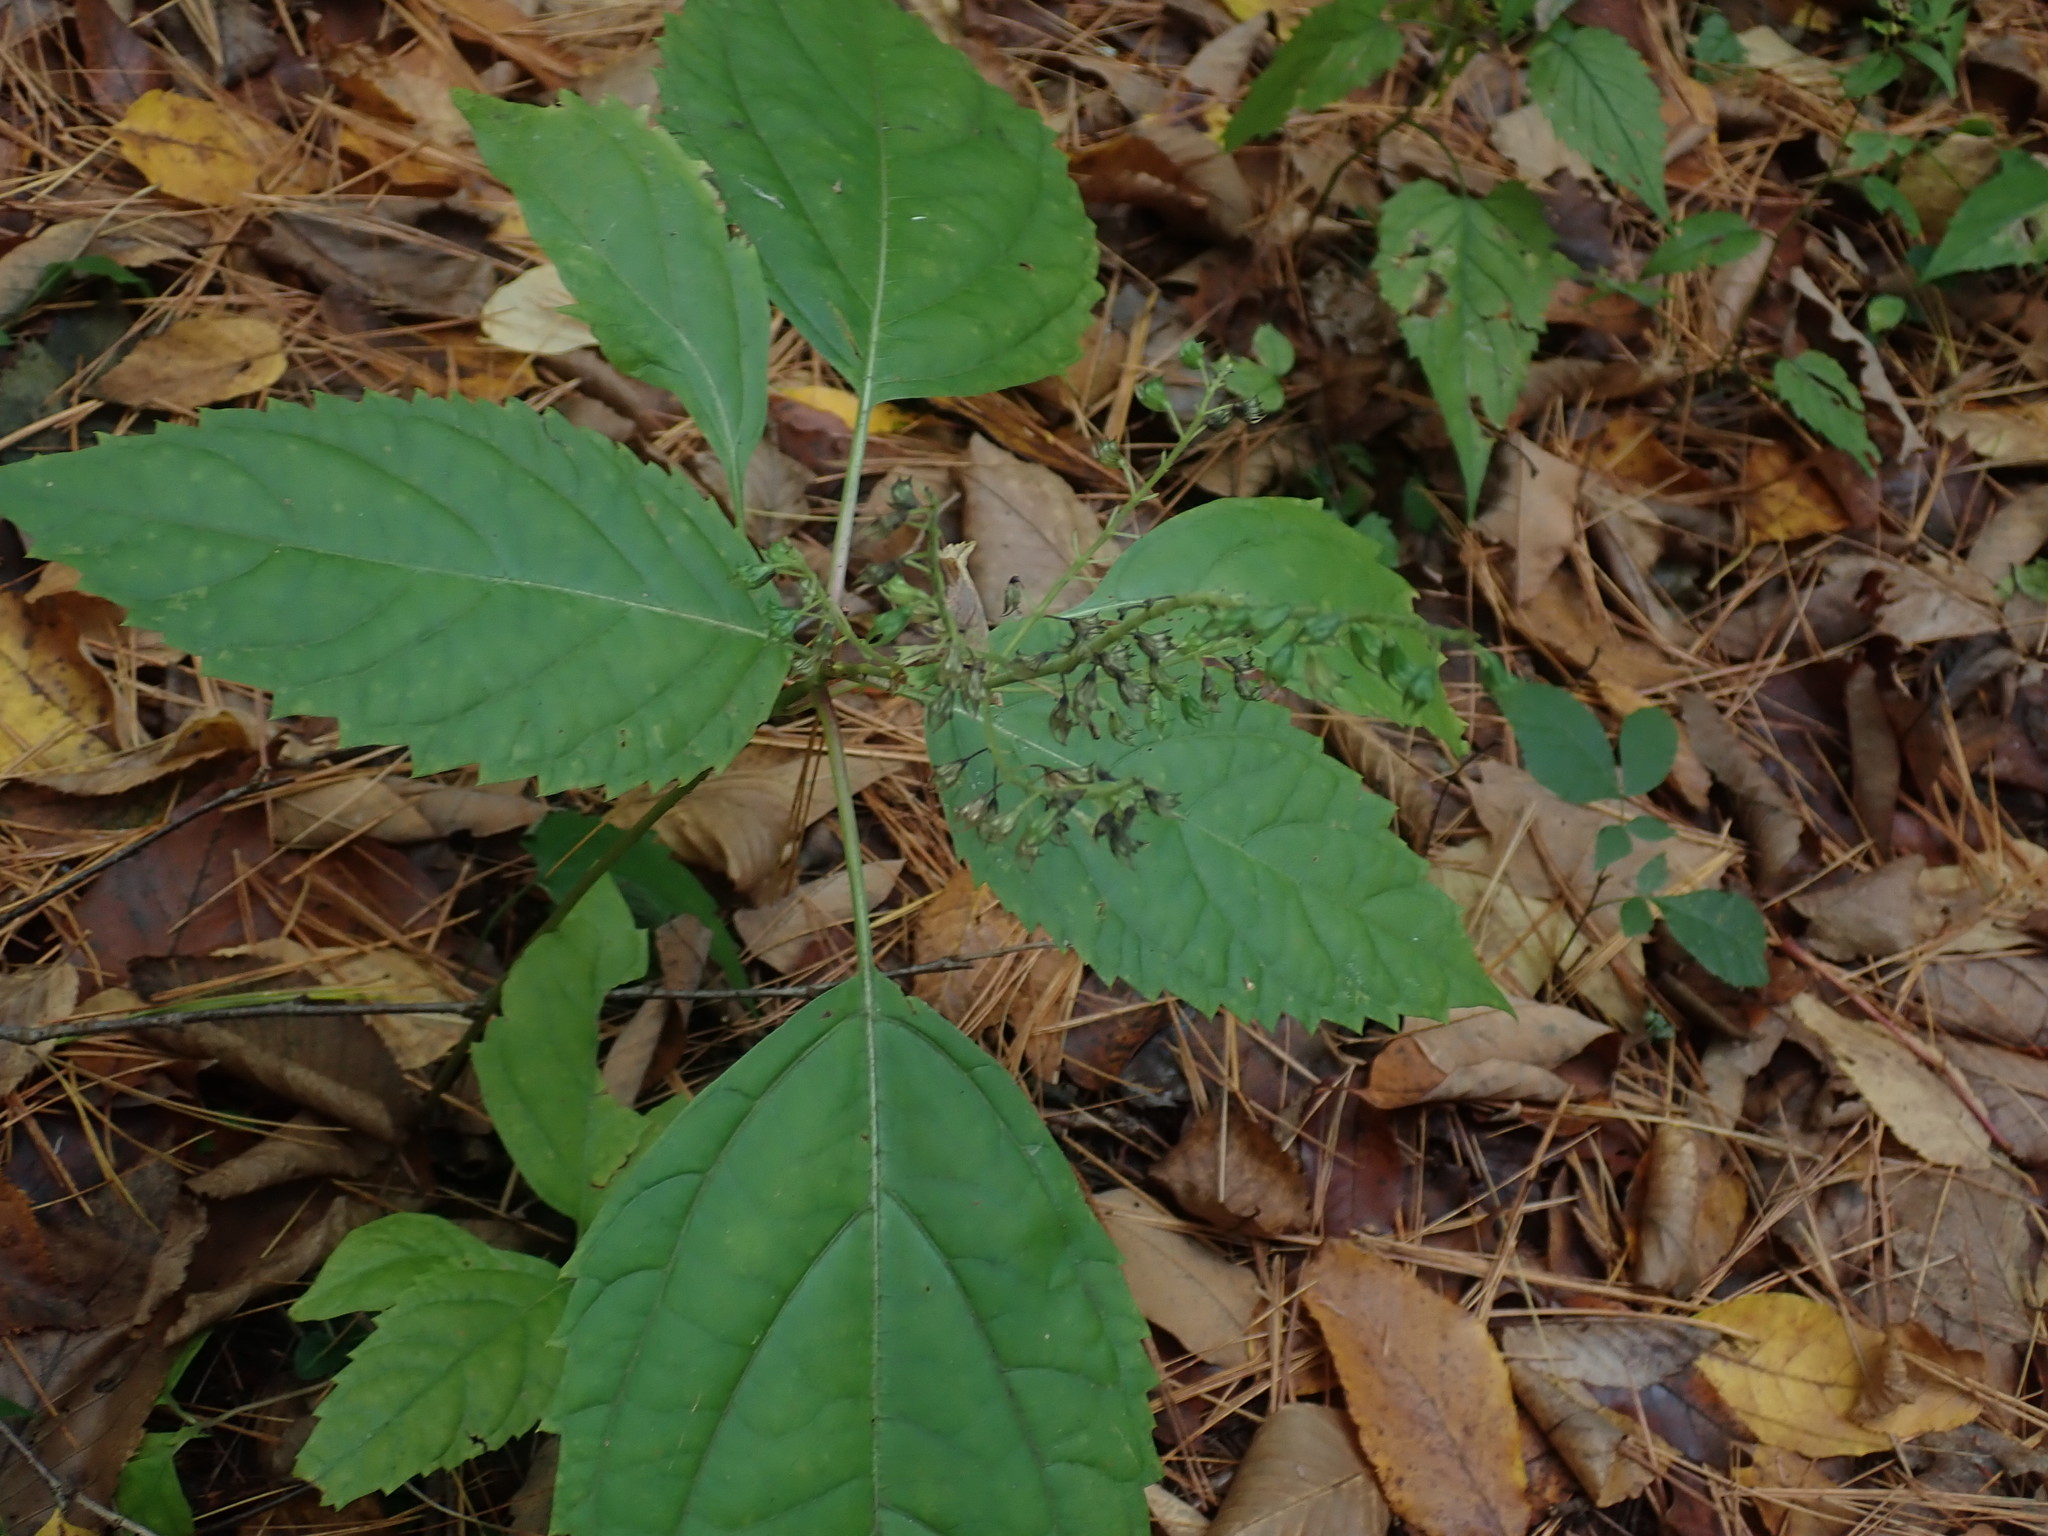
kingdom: Plantae
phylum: Tracheophyta
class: Magnoliopsida
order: Lamiales
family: Lamiaceae
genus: Collinsonia
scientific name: Collinsonia canadensis
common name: Northern horsebalm
